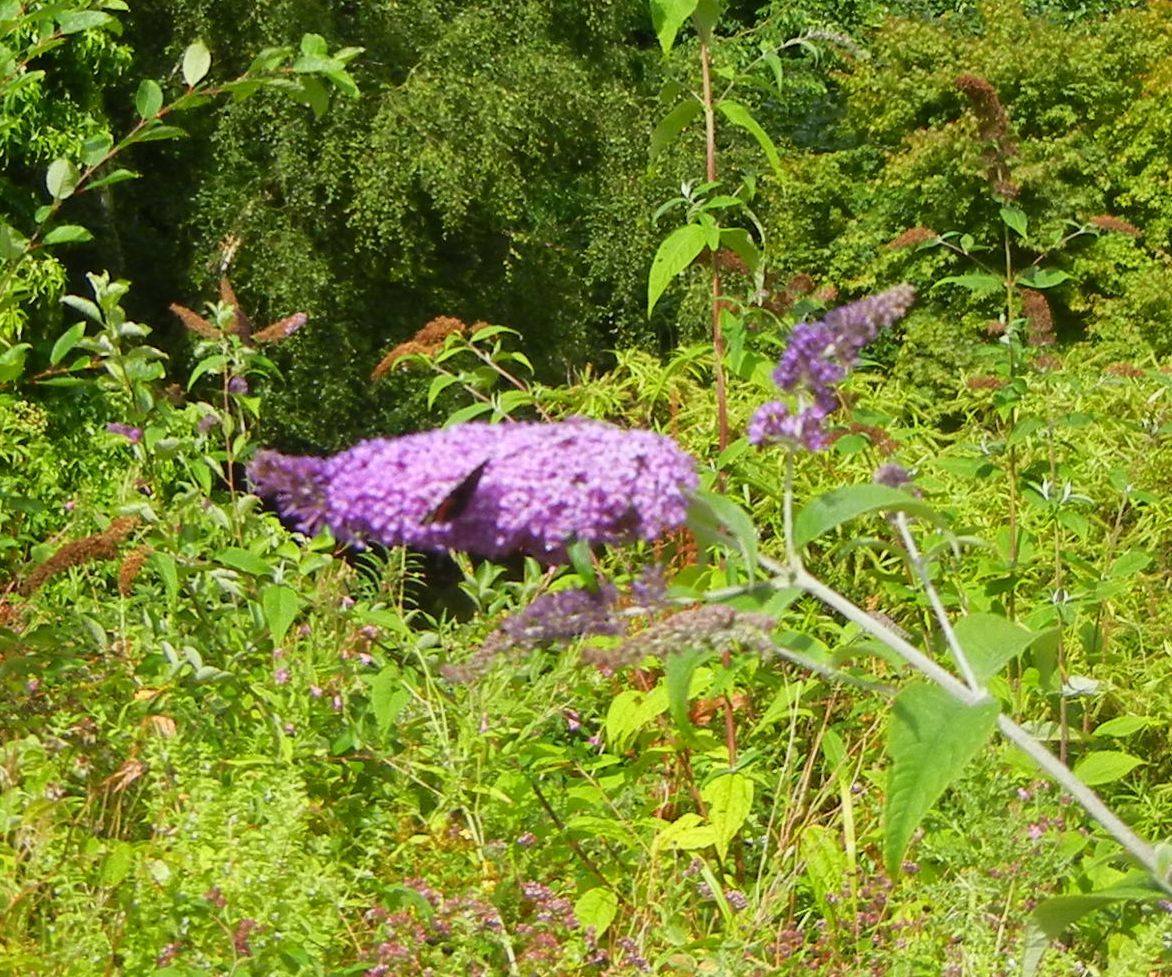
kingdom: Plantae
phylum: Tracheophyta
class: Magnoliopsida
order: Lamiales
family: Scrophulariaceae
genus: Buddleja
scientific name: Buddleja davidii
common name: Butterfly-bush
